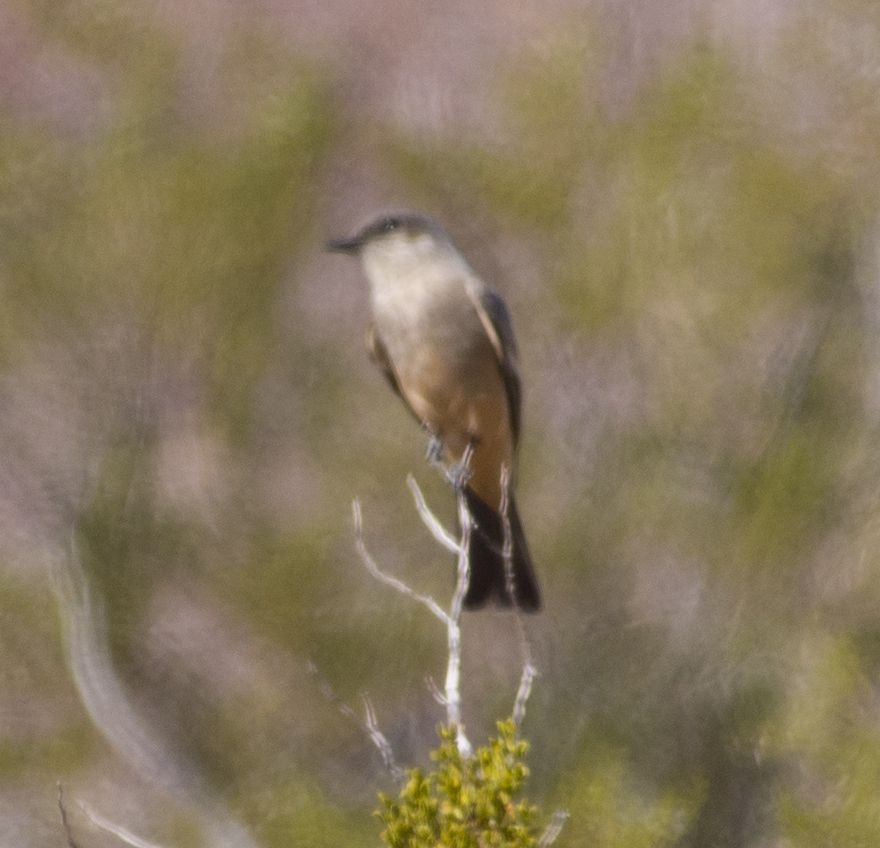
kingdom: Animalia
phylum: Chordata
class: Aves
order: Passeriformes
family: Tyrannidae
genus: Sayornis
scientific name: Sayornis saya
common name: Say's phoebe
